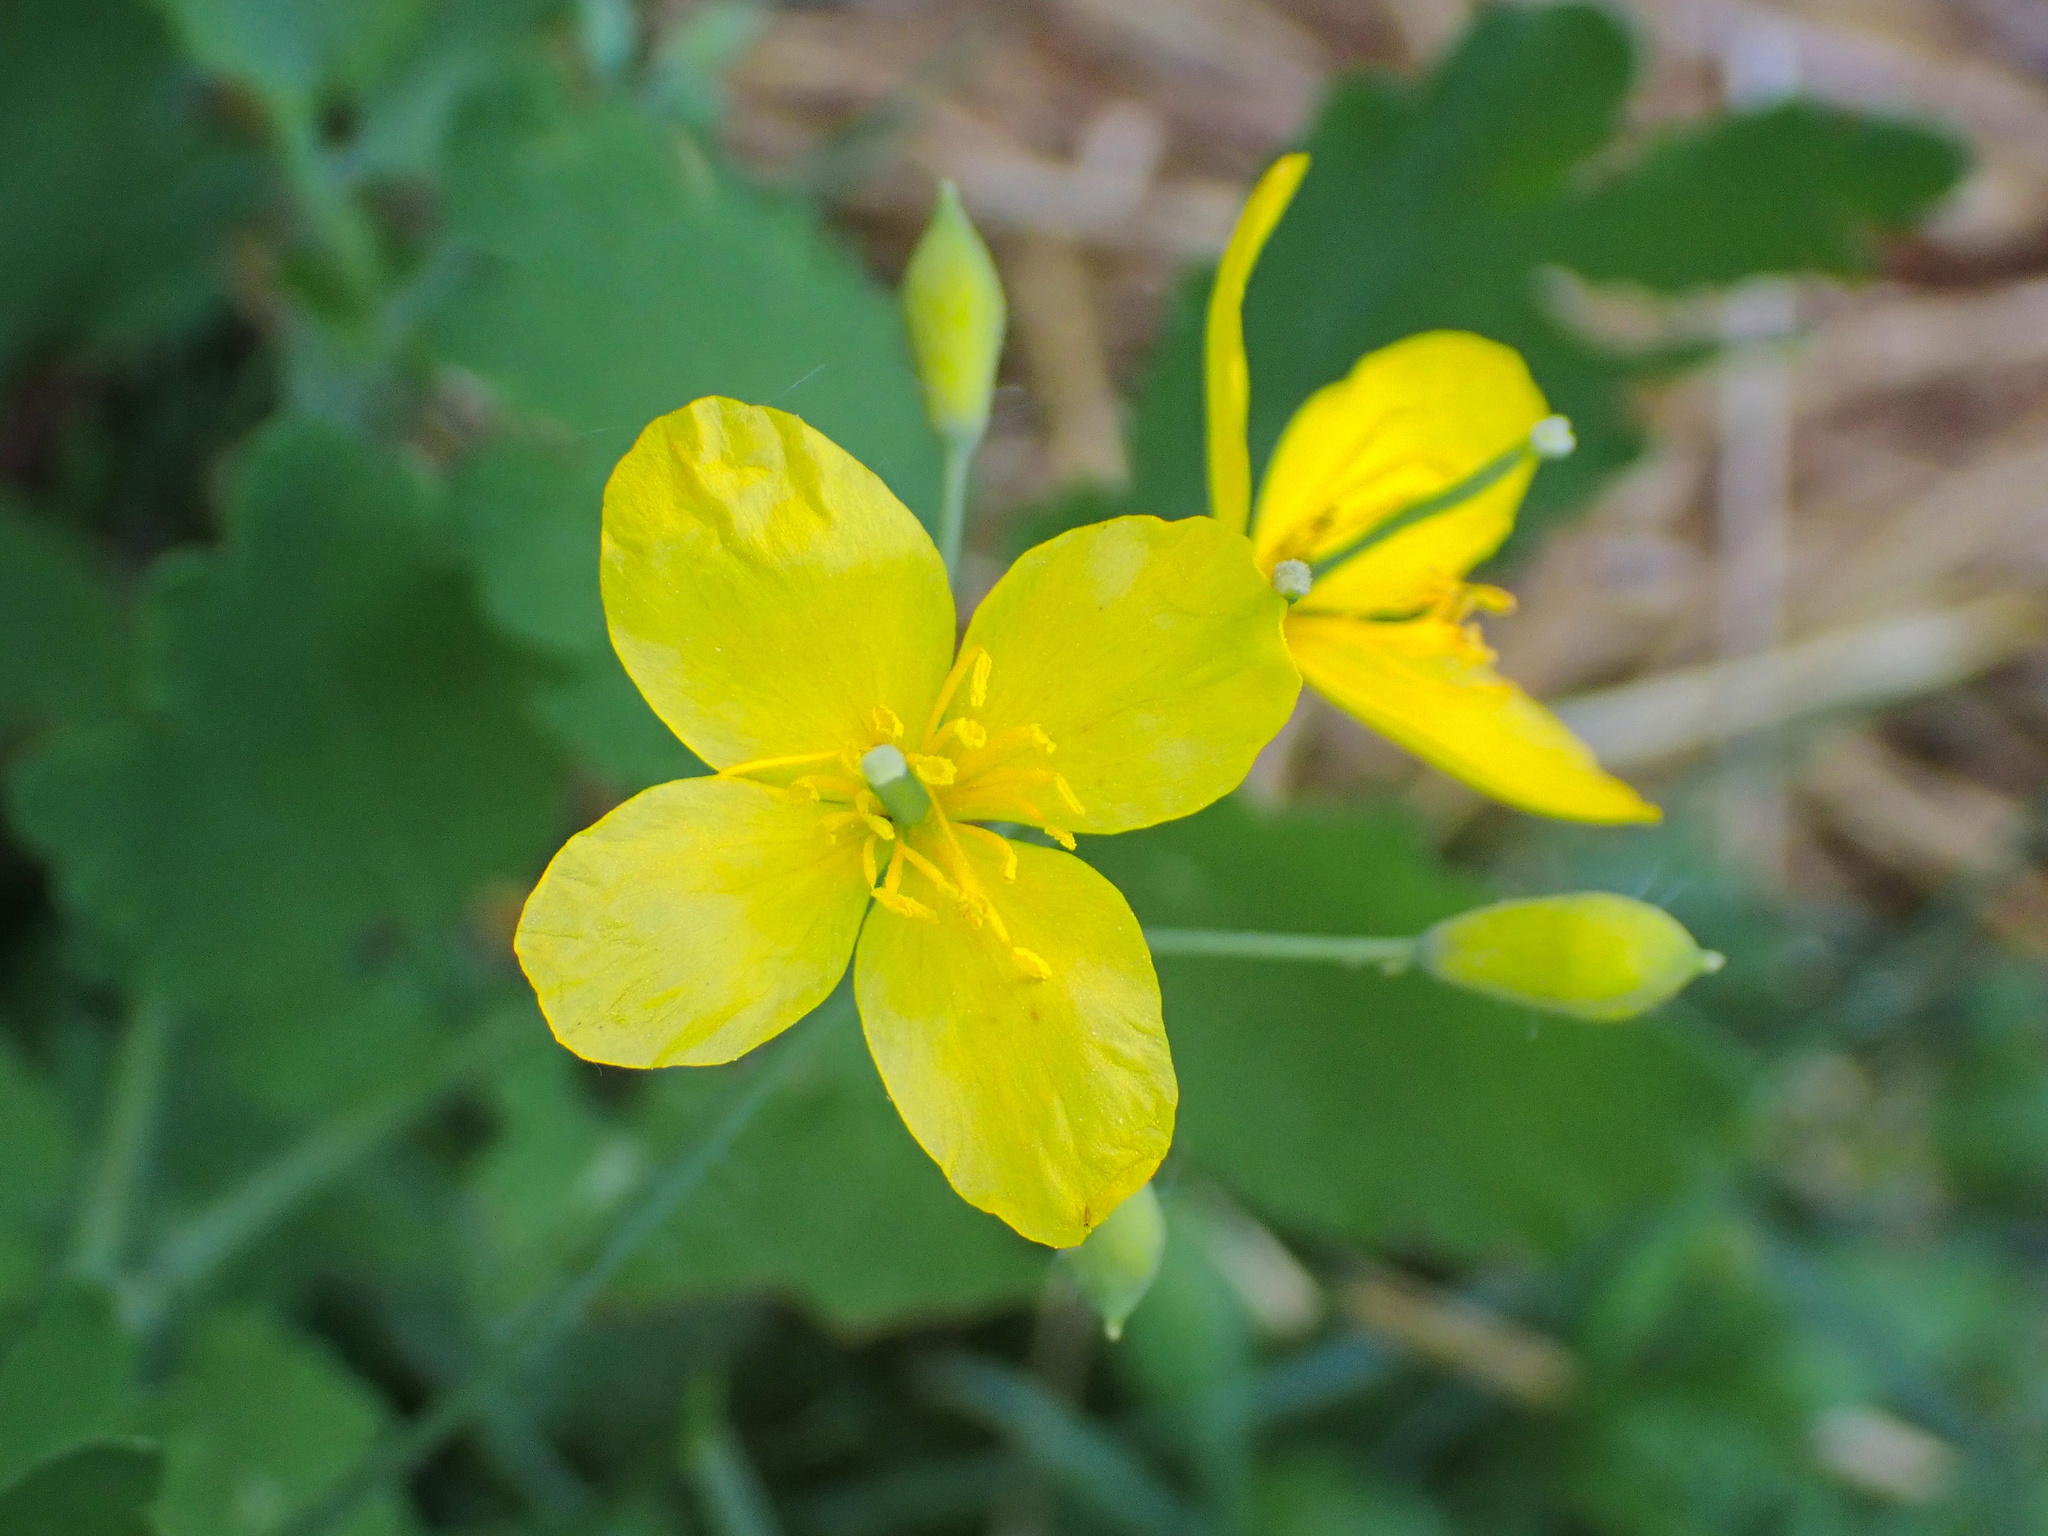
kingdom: Plantae
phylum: Tracheophyta
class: Magnoliopsida
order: Ranunculales
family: Papaveraceae
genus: Chelidonium
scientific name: Chelidonium majus
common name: Greater celandine
